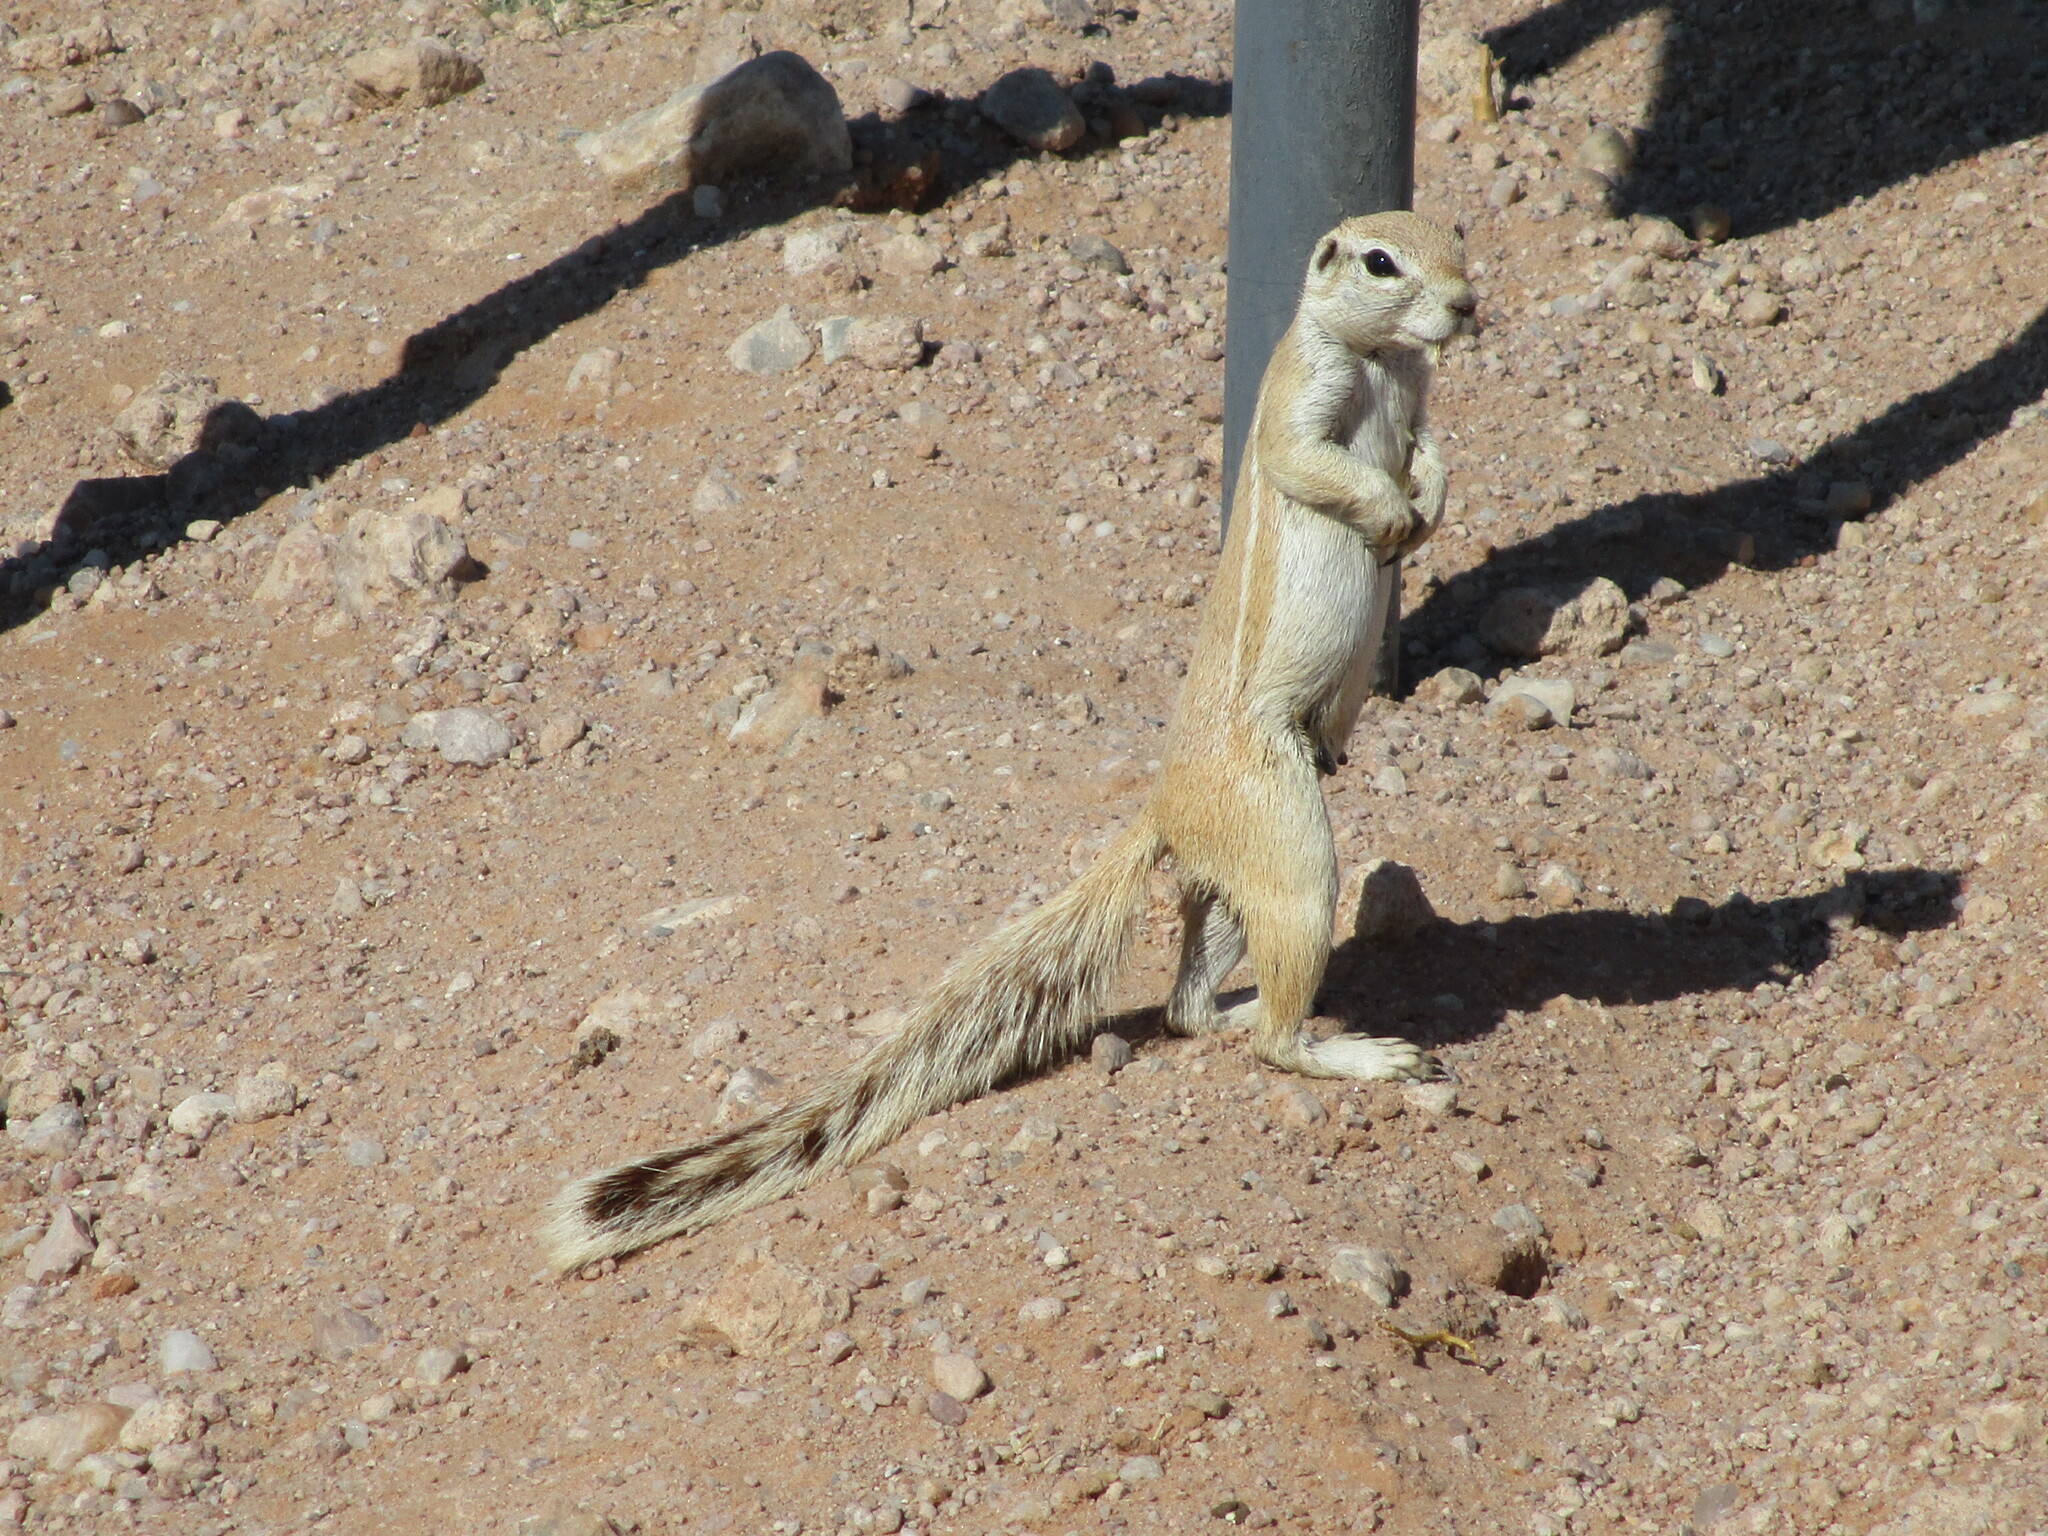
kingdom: Animalia
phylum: Chordata
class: Mammalia
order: Rodentia
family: Sciuridae
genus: Xerus
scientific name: Xerus inauris
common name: South african ground squirrel
